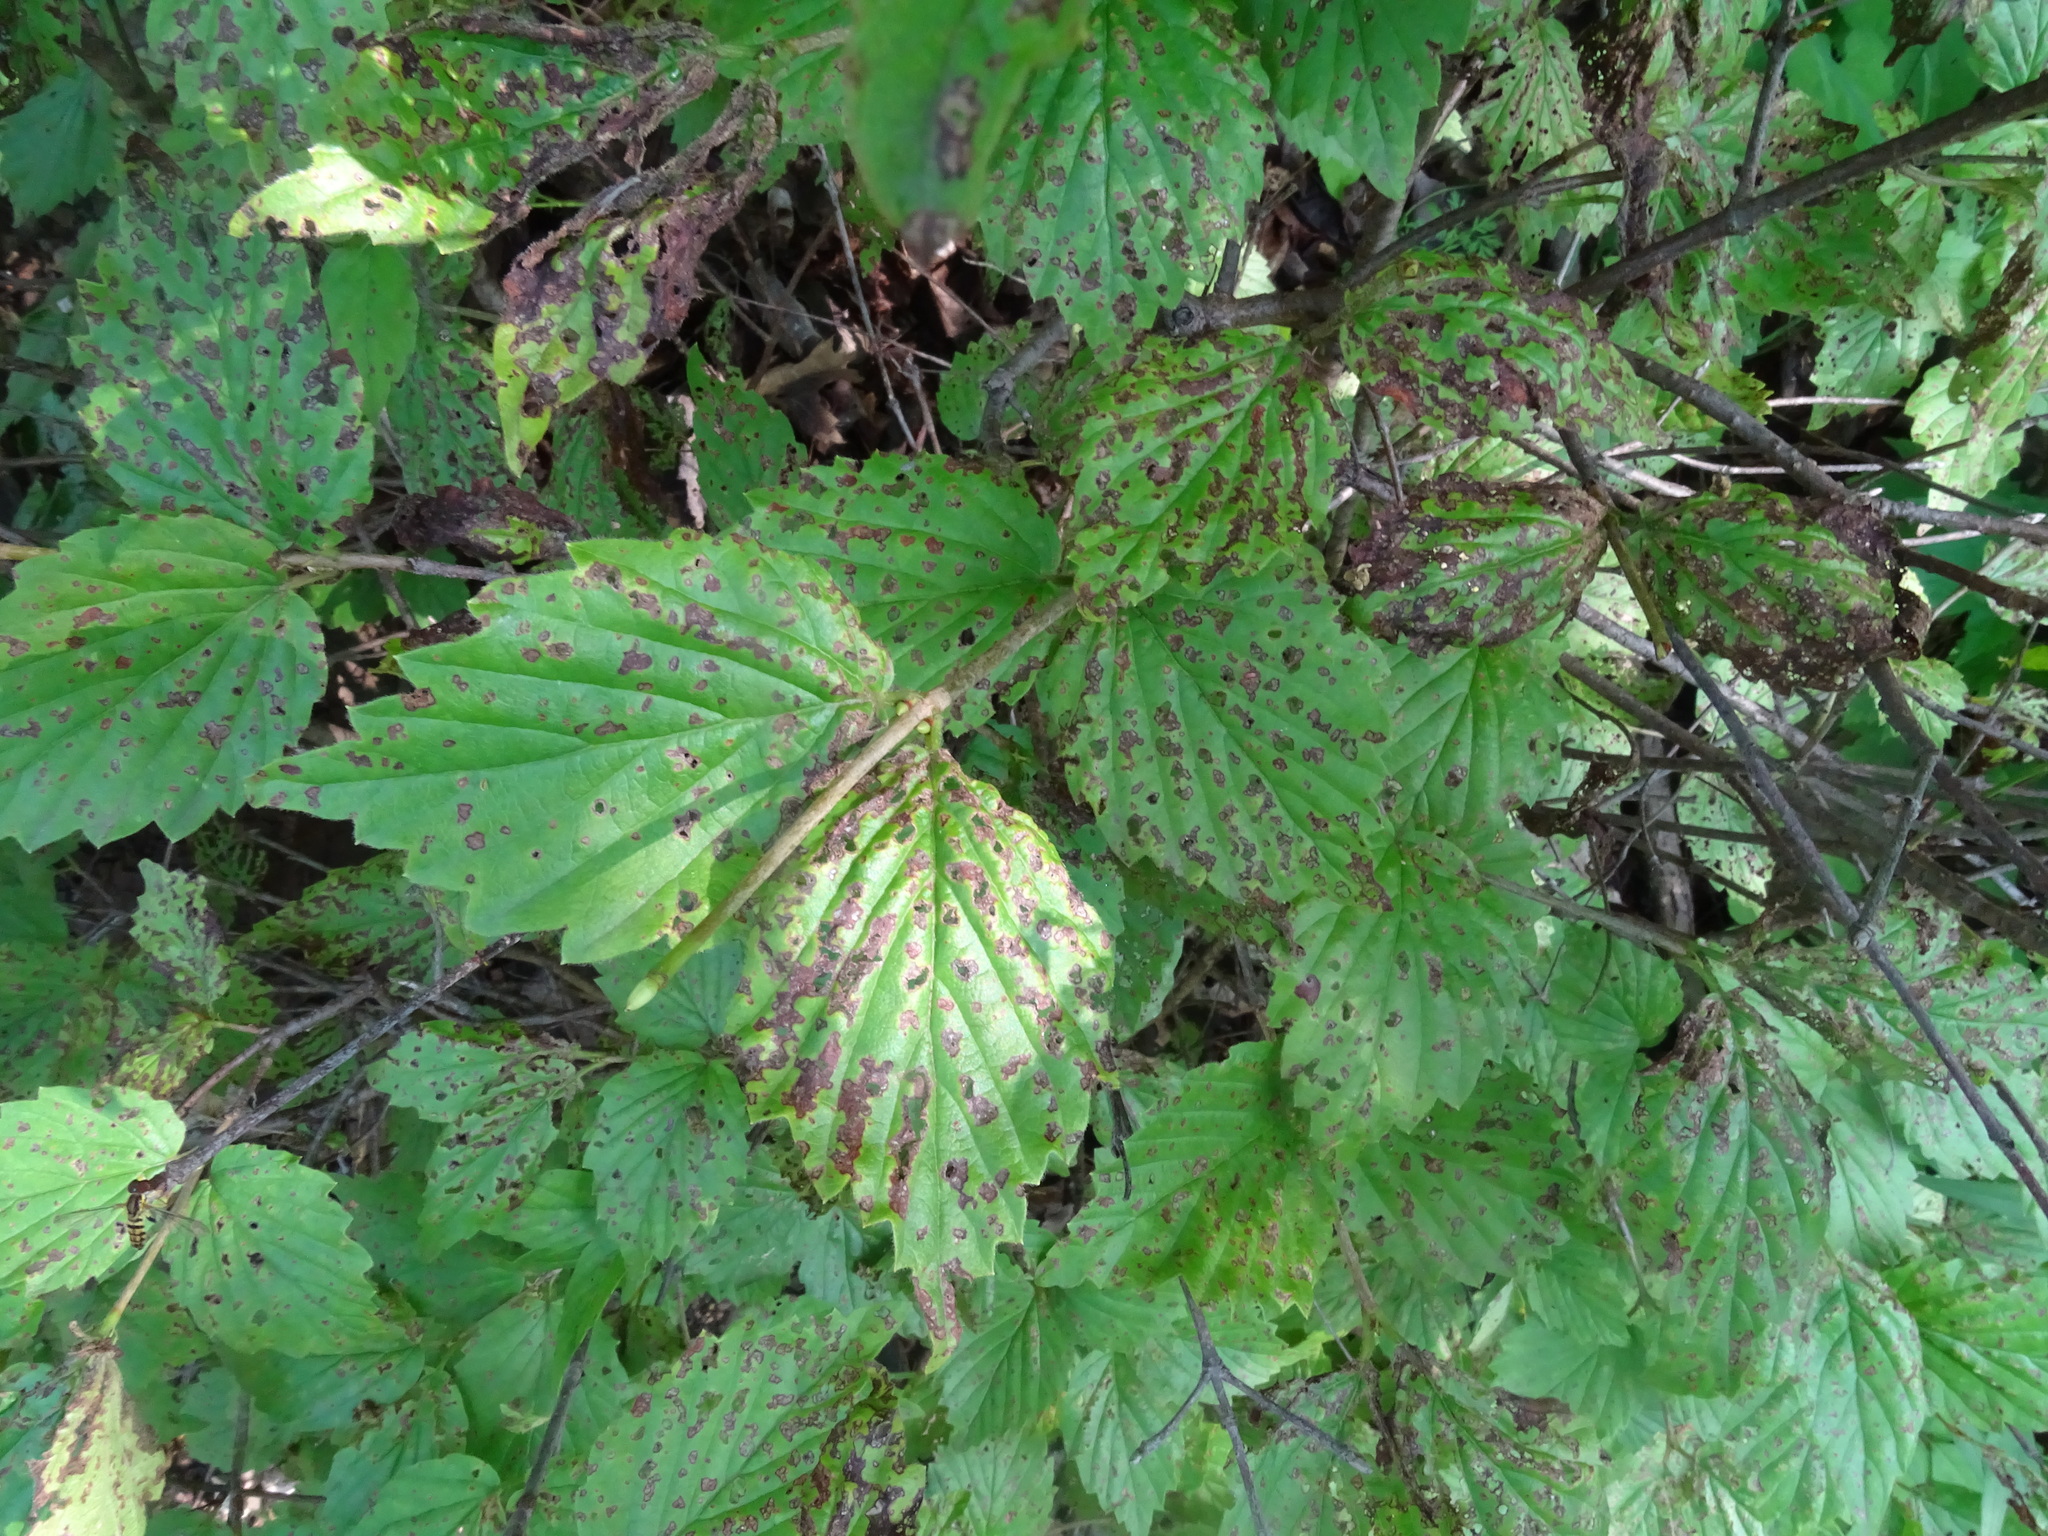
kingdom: Plantae
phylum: Tracheophyta
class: Magnoliopsida
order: Dipsacales
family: Viburnaceae
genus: Viburnum
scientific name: Viburnum rafinesqueanum
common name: Downy arrow-wood
